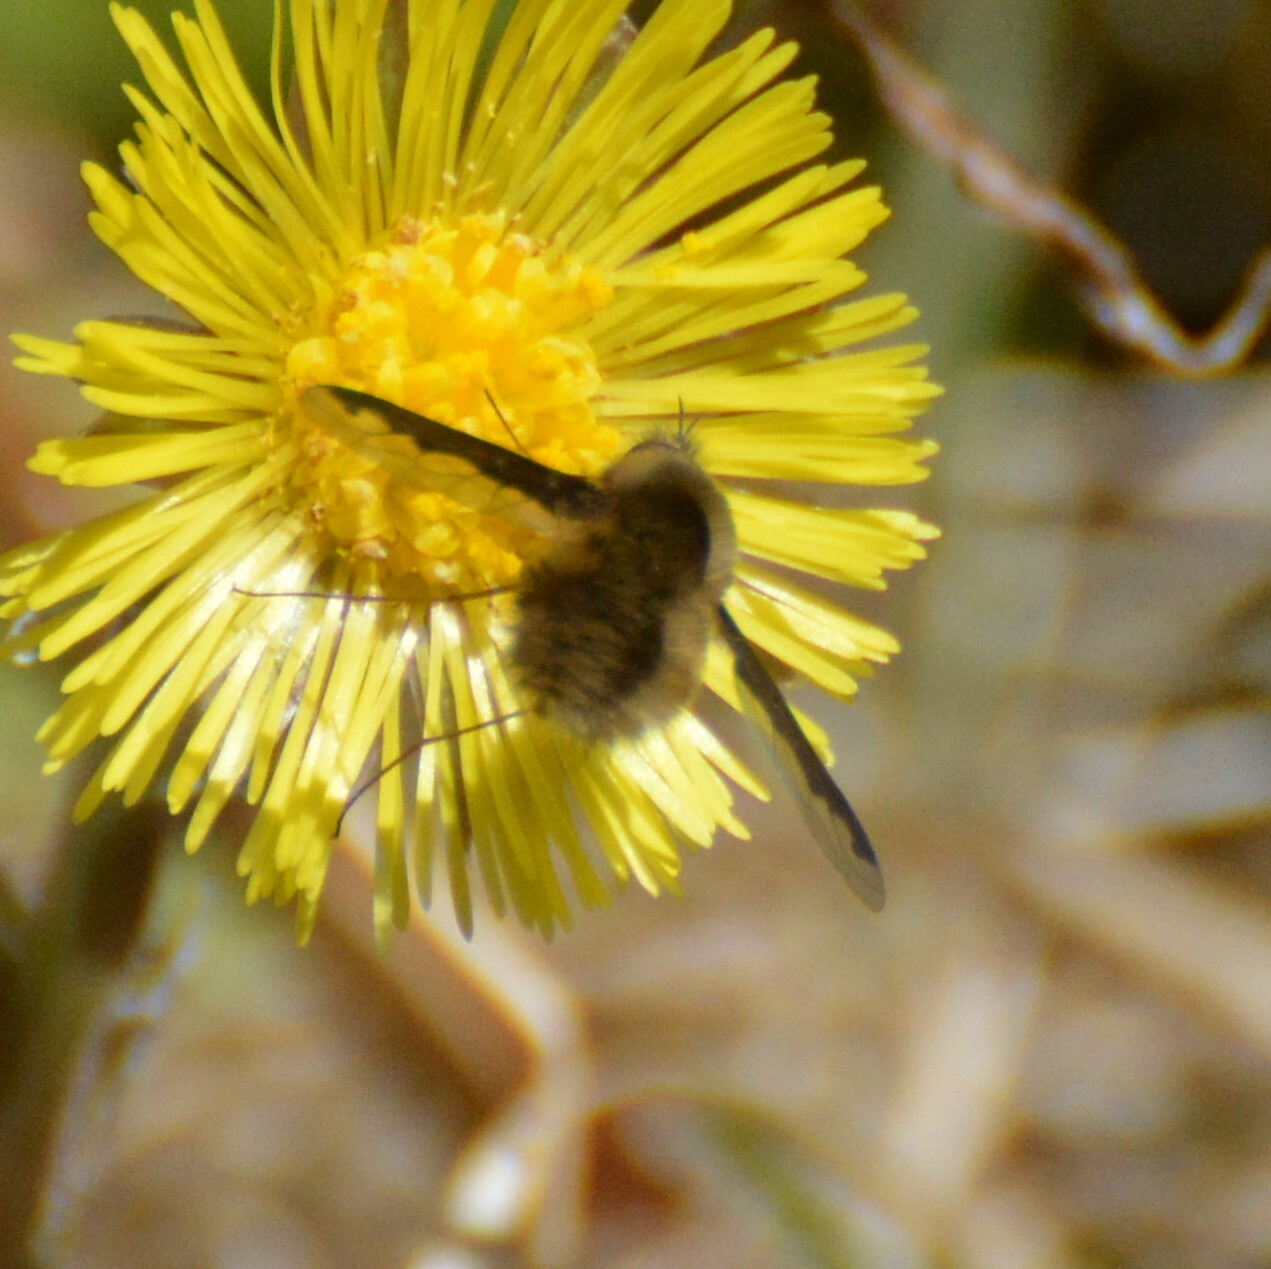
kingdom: Animalia
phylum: Arthropoda
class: Insecta
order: Diptera
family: Bombyliidae
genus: Bombylius
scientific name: Bombylius major
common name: Bee fly
